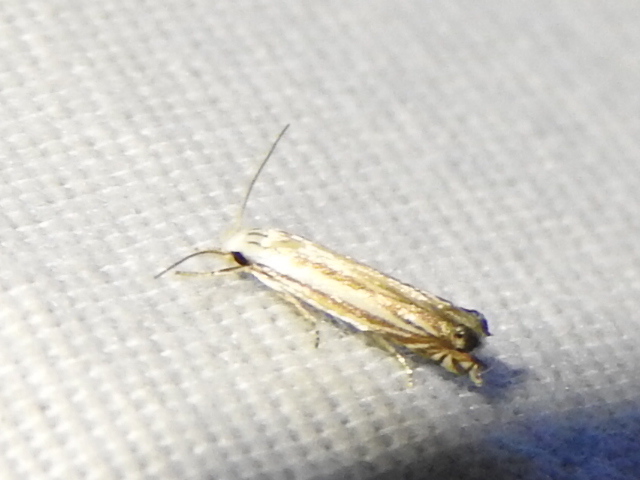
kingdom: Animalia
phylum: Arthropoda
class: Insecta
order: Lepidoptera
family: Gelechiidae
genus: Polyhymno
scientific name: Polyhymno luteostrigella
